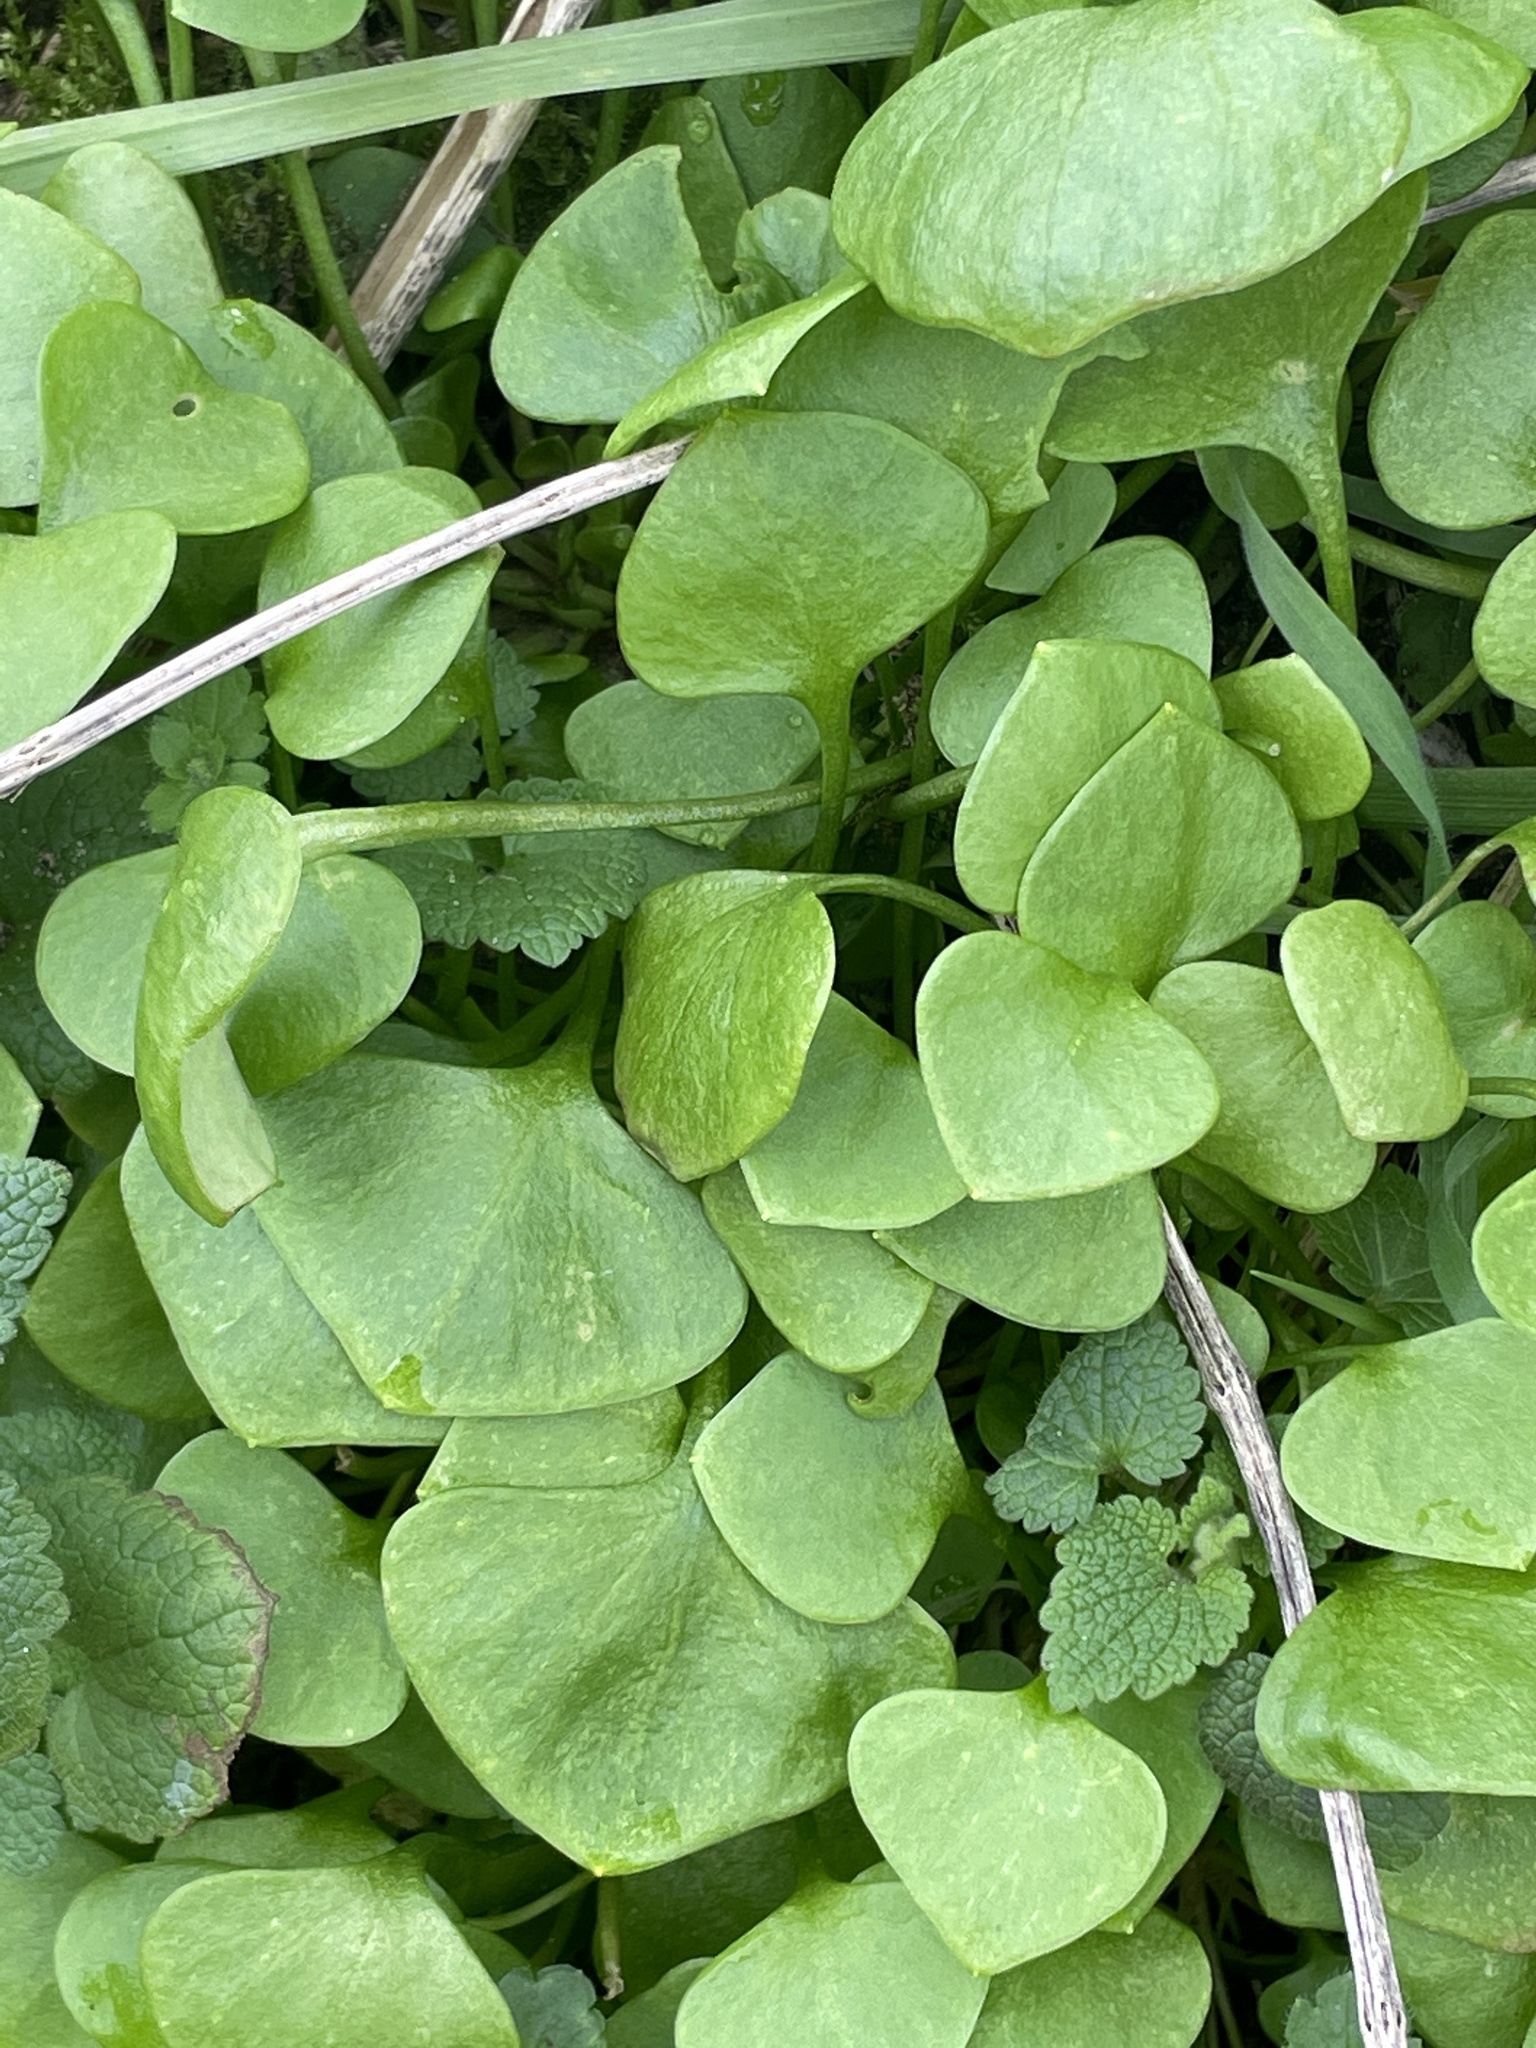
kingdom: Plantae
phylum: Tracheophyta
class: Magnoliopsida
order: Caryophyllales
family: Montiaceae
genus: Claytonia
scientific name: Claytonia perfoliata
